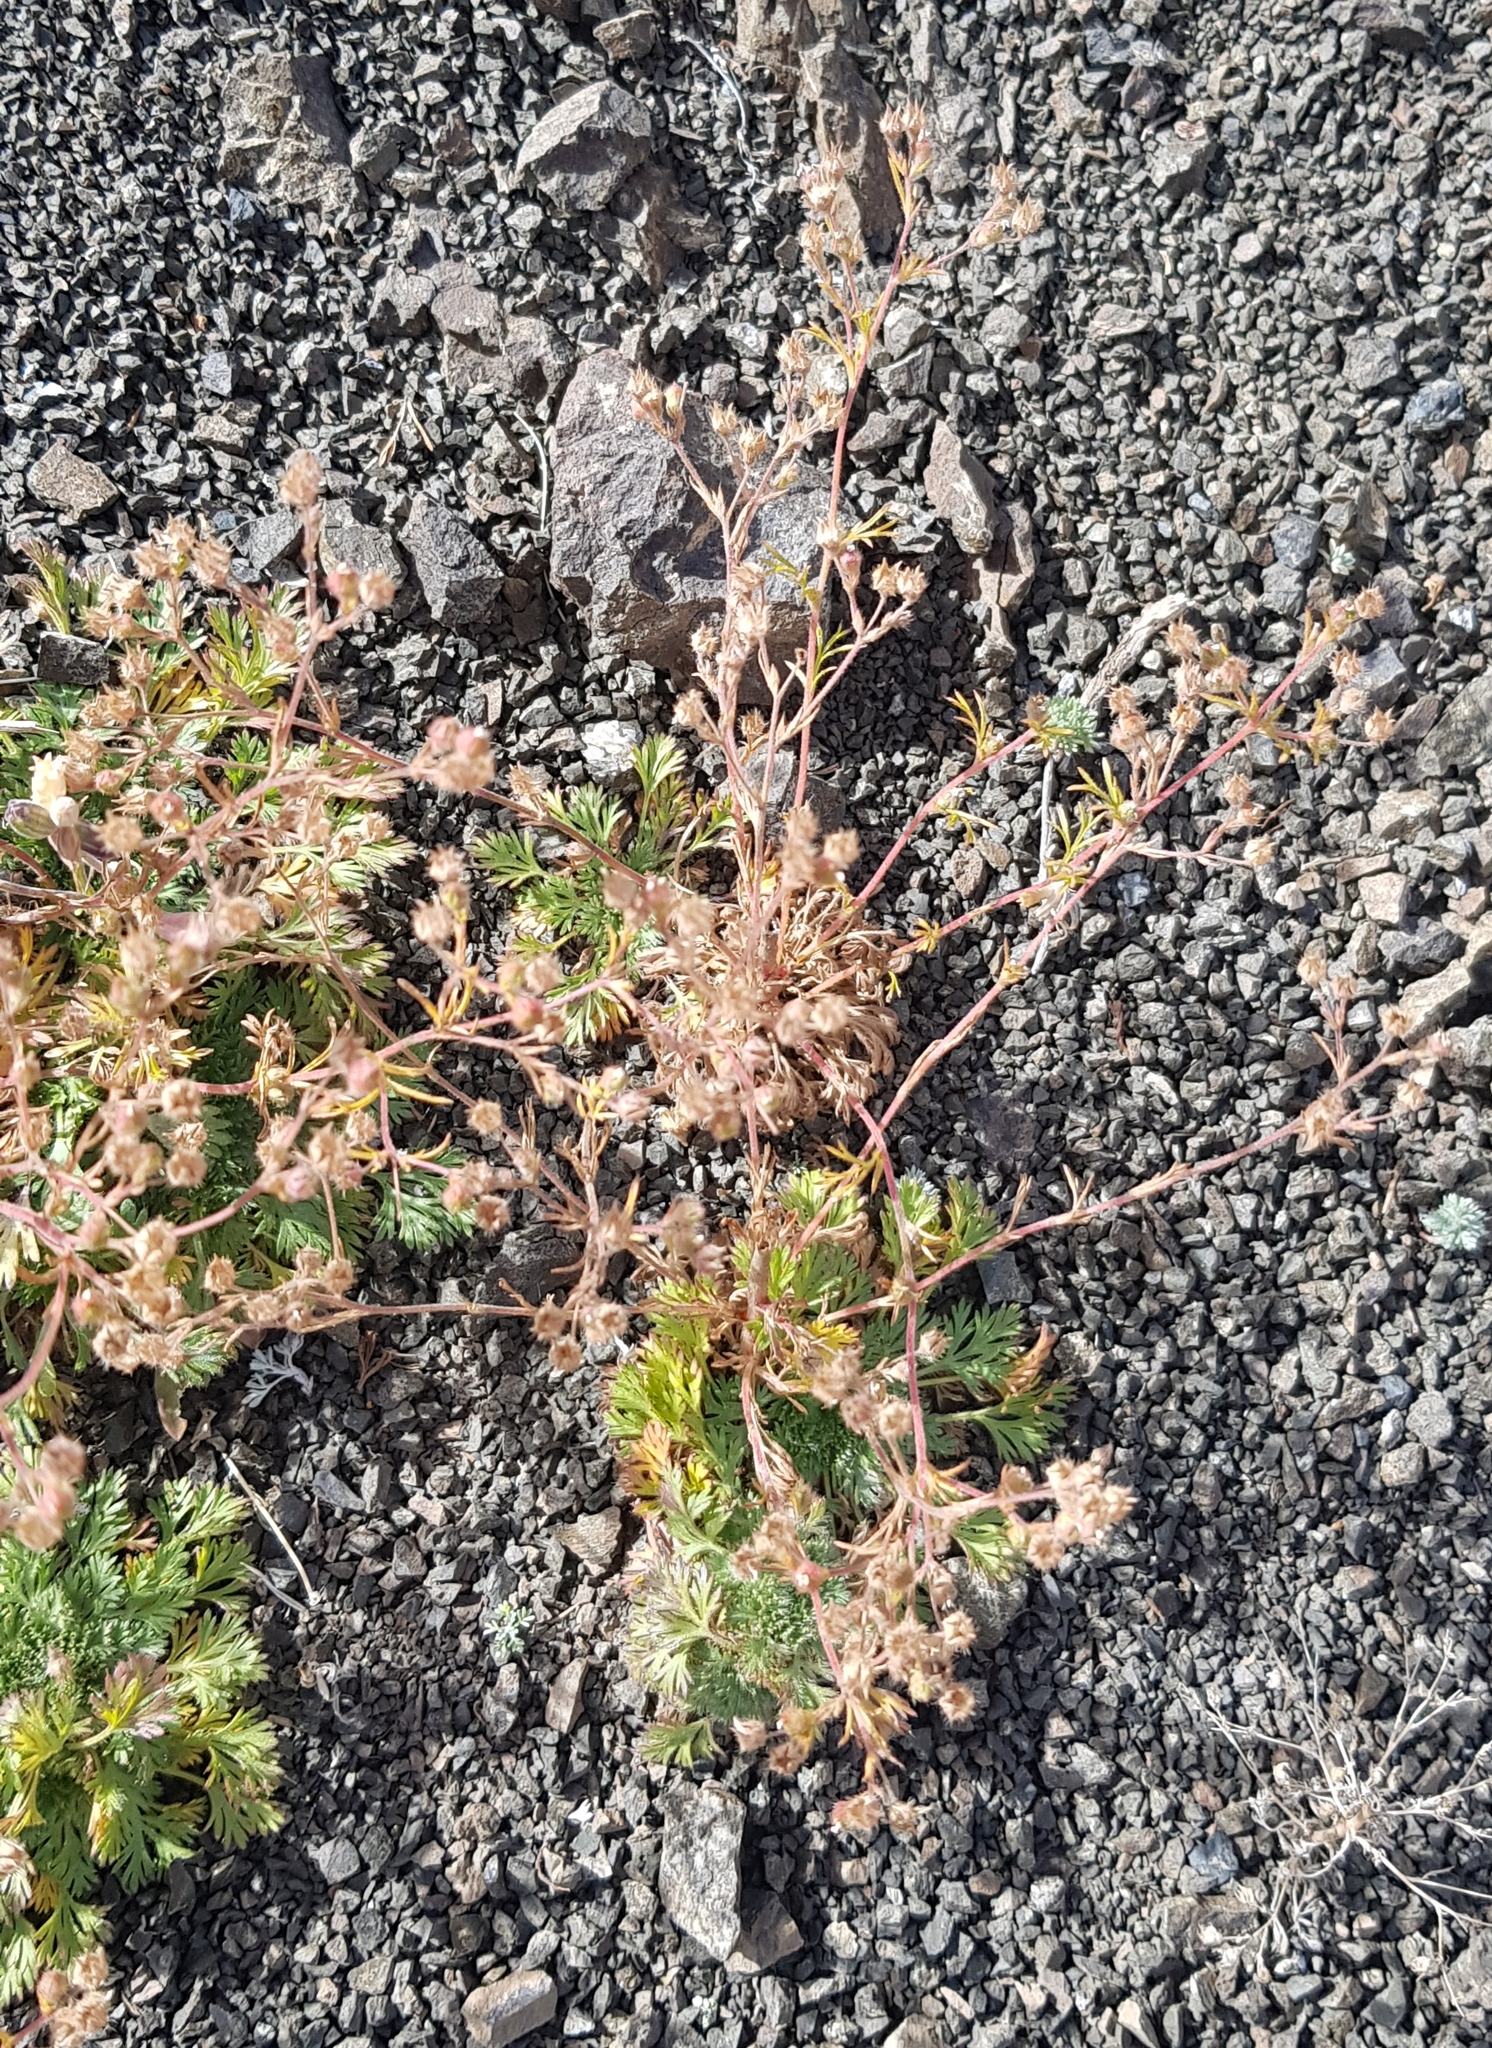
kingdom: Plantae
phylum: Tracheophyta
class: Magnoliopsida
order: Rosales
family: Rosaceae
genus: Chamaerhodos
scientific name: Chamaerhodos erecta
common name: American chamaerhodos
